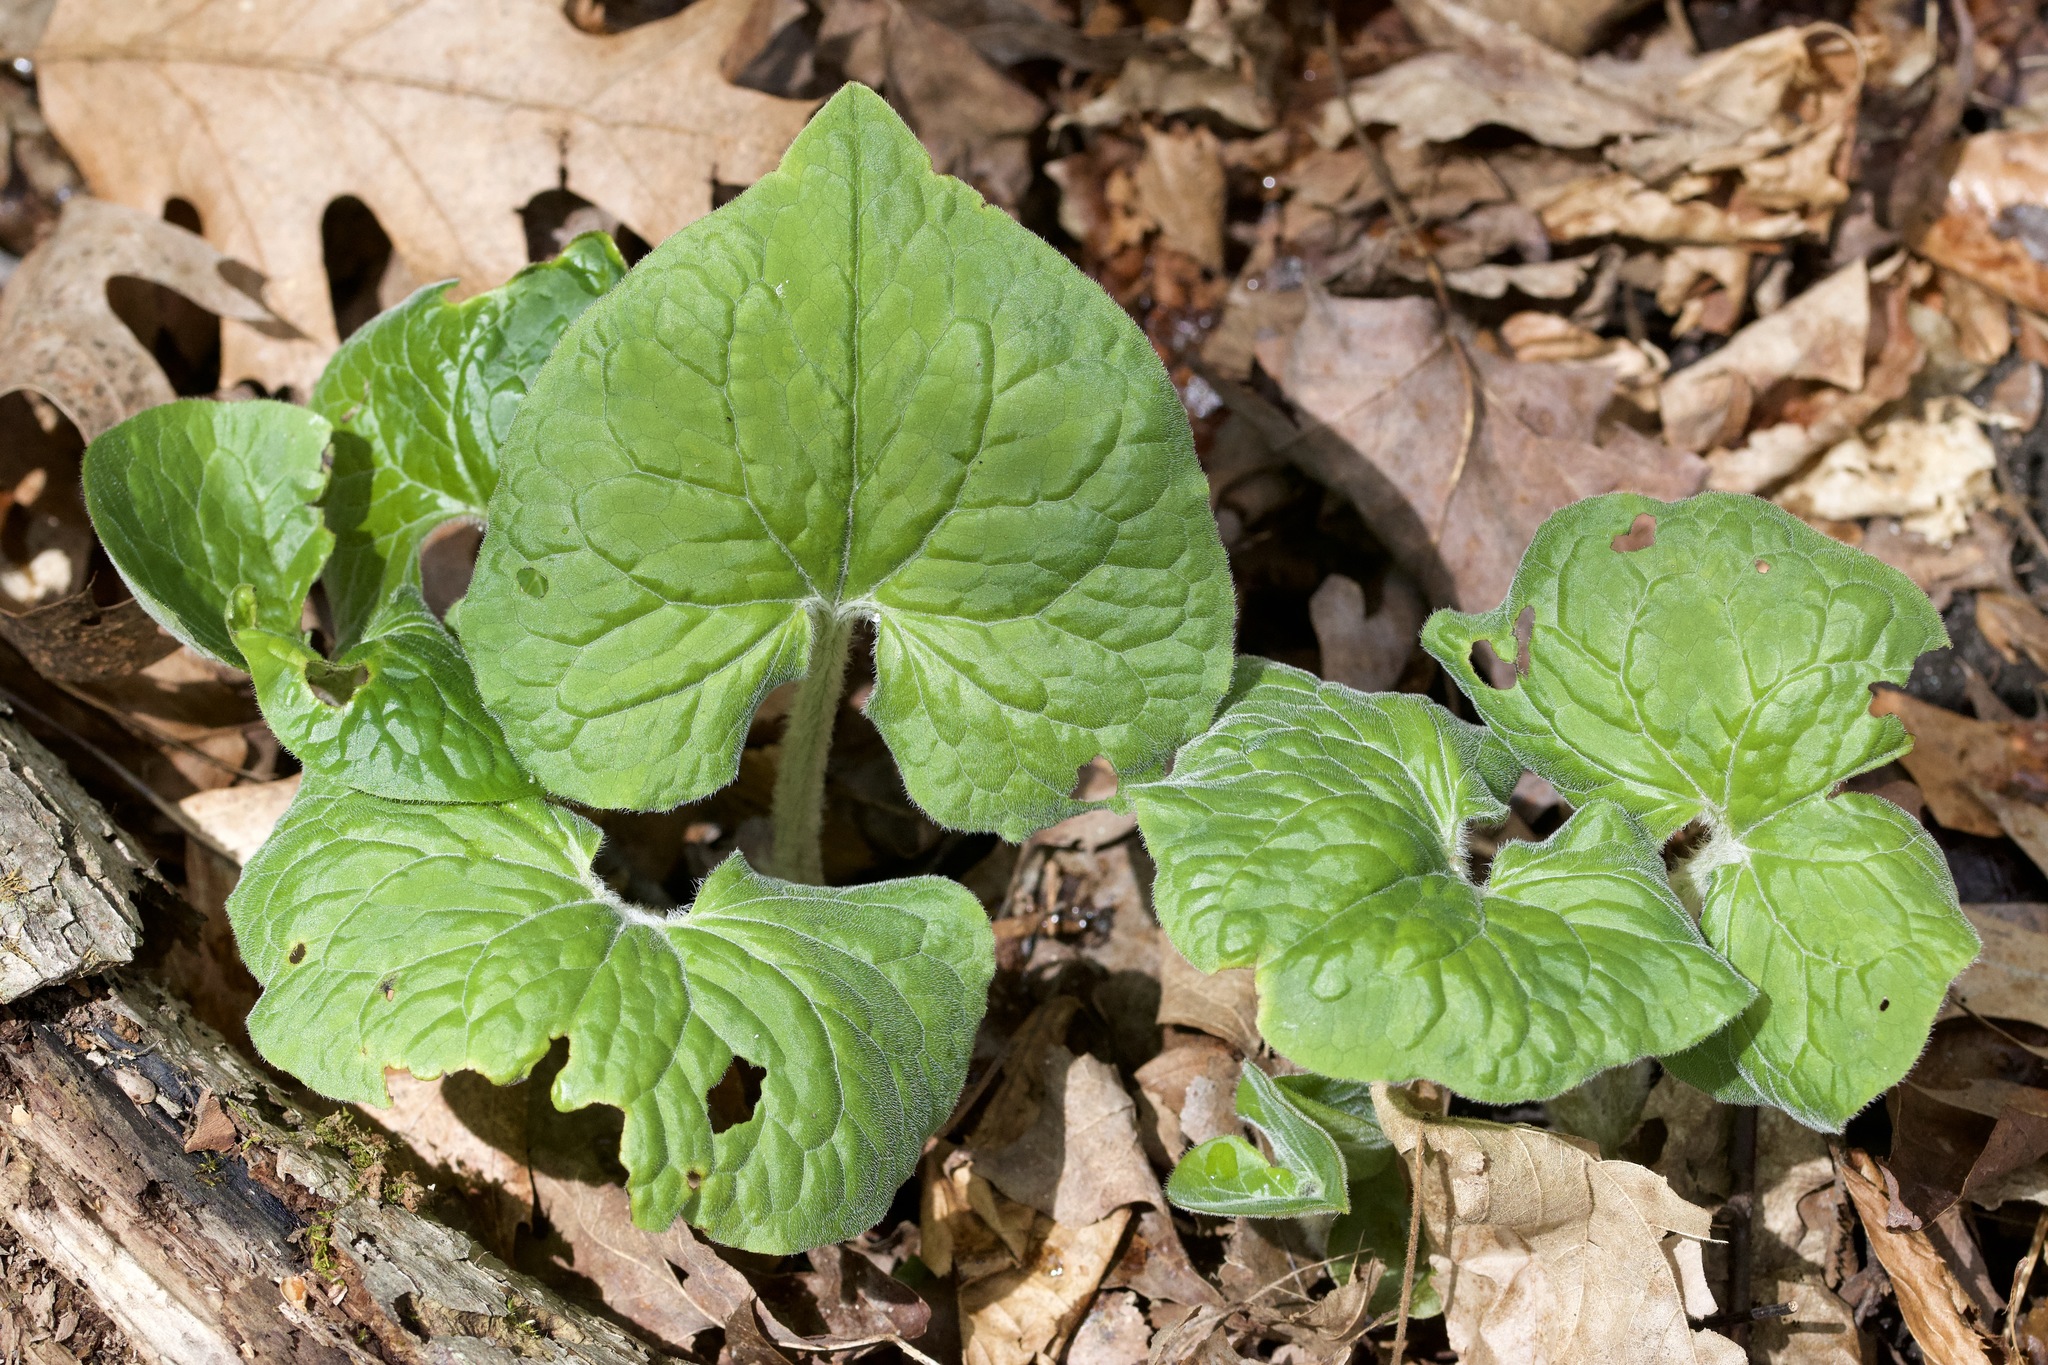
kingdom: Plantae
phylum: Tracheophyta
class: Magnoliopsida
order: Piperales
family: Aristolochiaceae
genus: Asarum
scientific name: Asarum canadense
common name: Wild ginger
